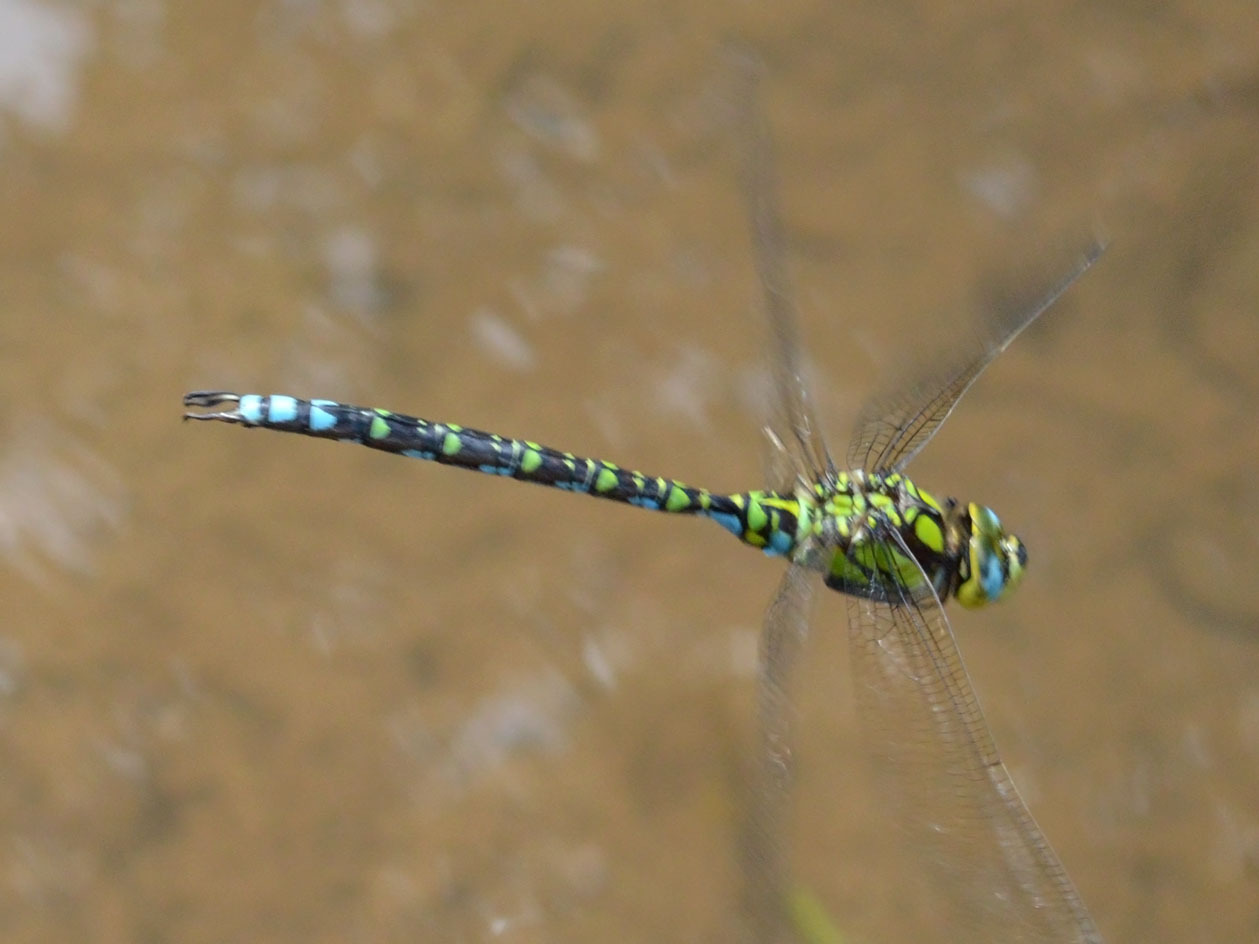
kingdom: Animalia
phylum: Arthropoda
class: Insecta
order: Odonata
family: Aeshnidae
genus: Aeshna
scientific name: Aeshna cyanea
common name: Southern hawker
